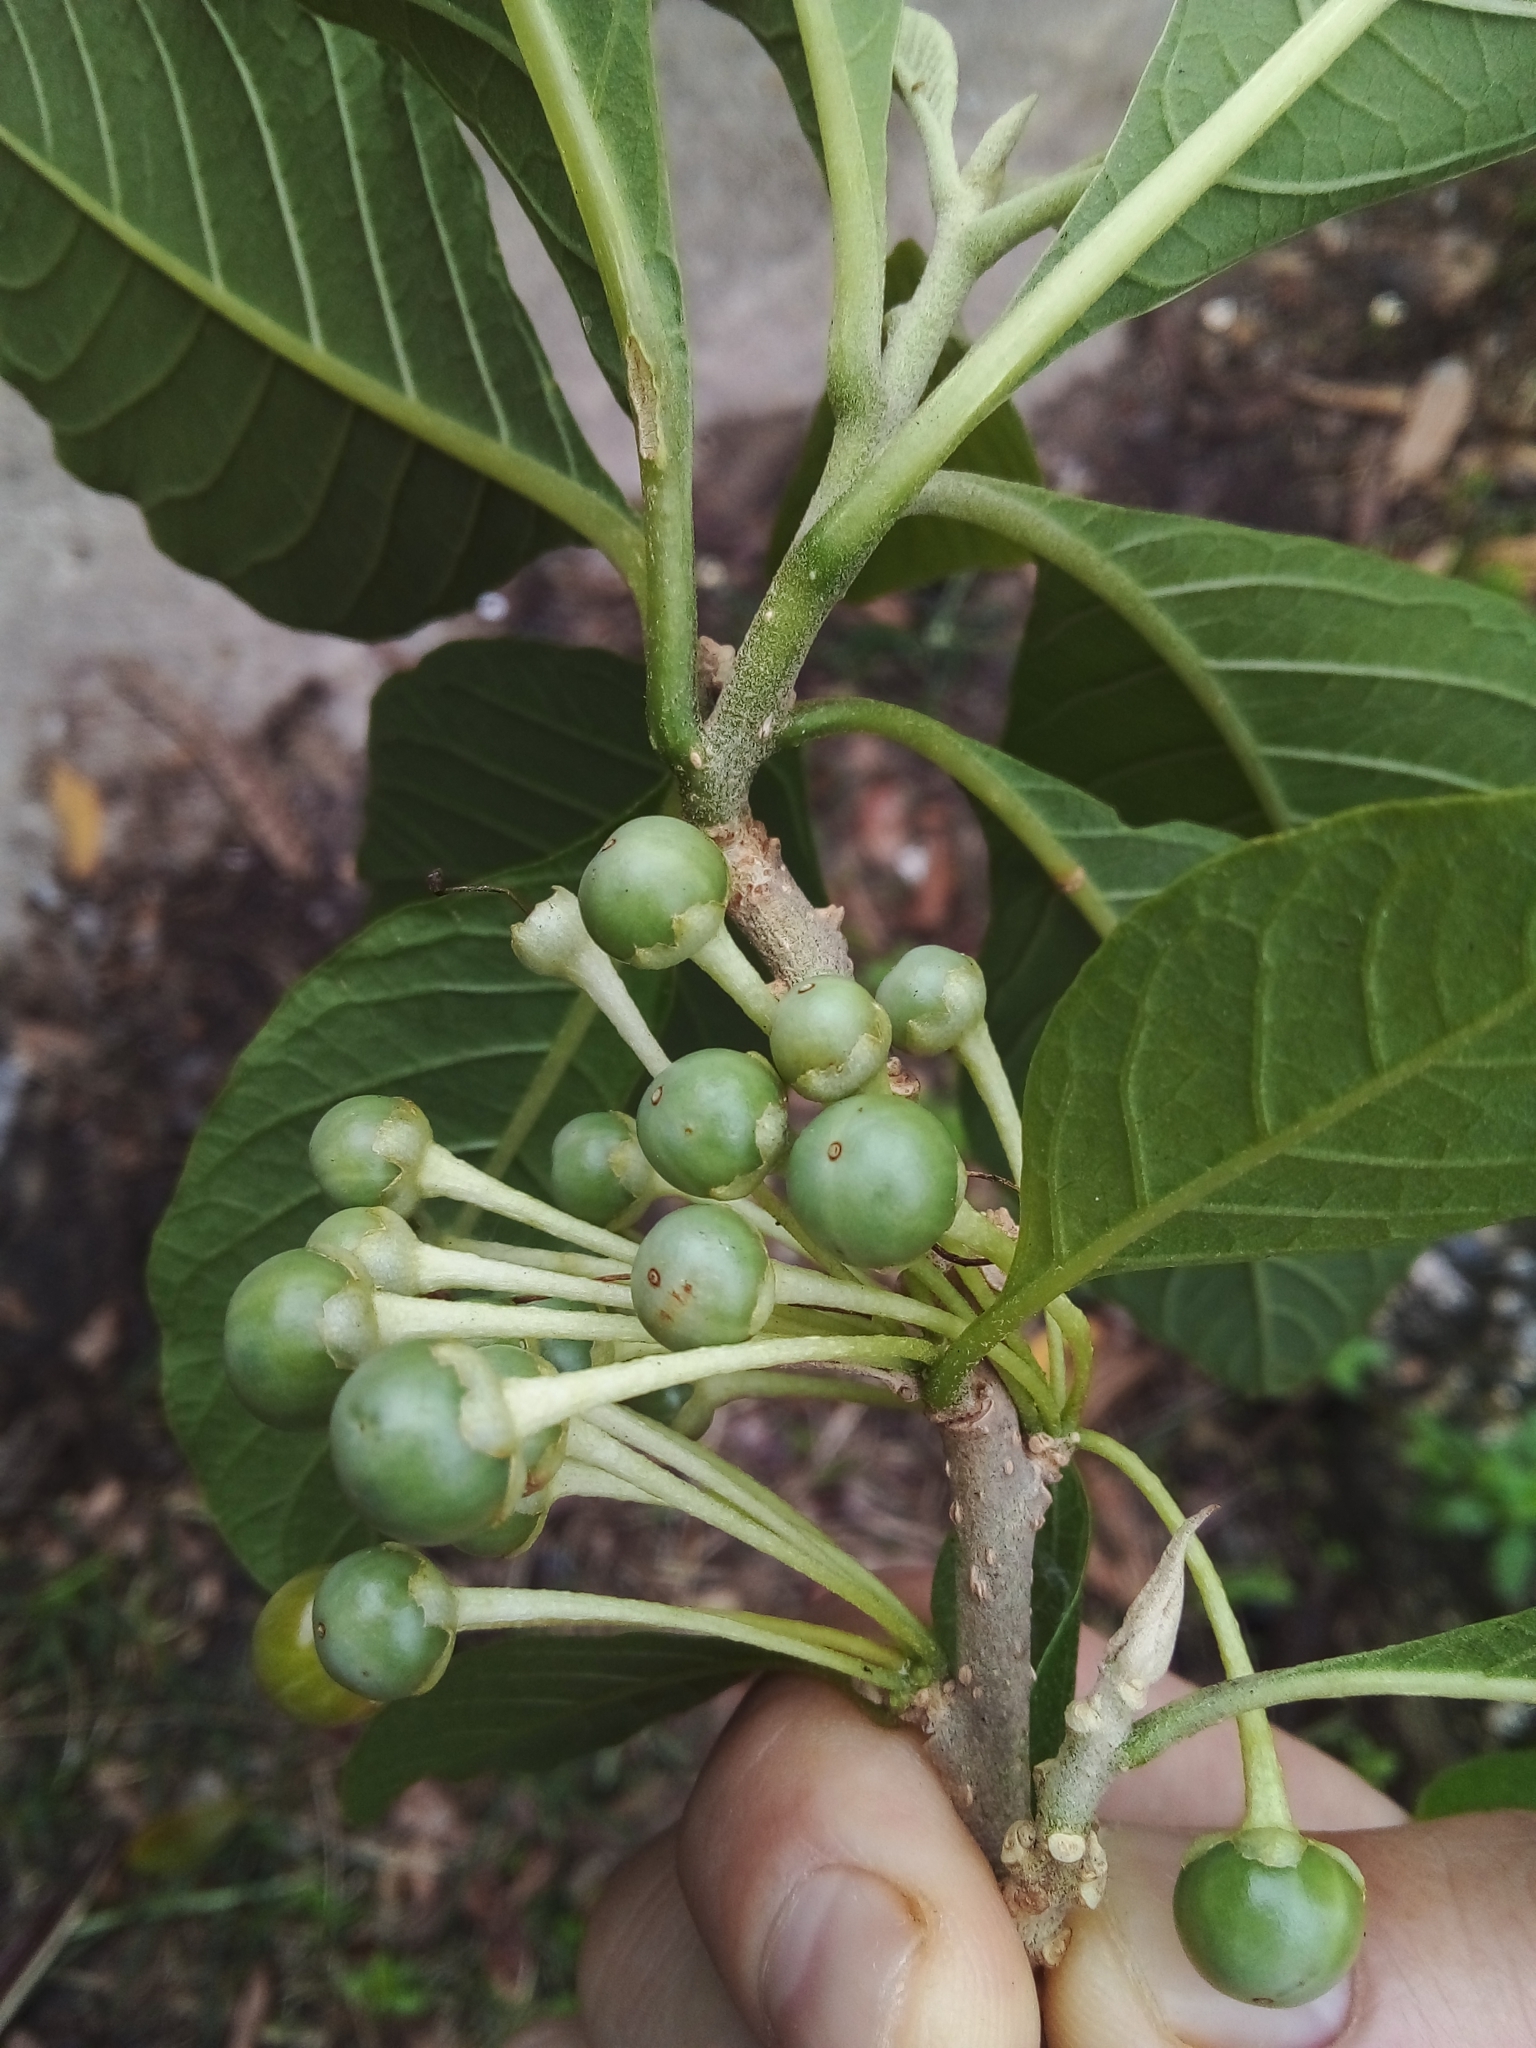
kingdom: Plantae
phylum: Tracheophyta
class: Magnoliopsida
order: Solanales
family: Solanaceae
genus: Iochroma
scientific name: Iochroma arborescens
